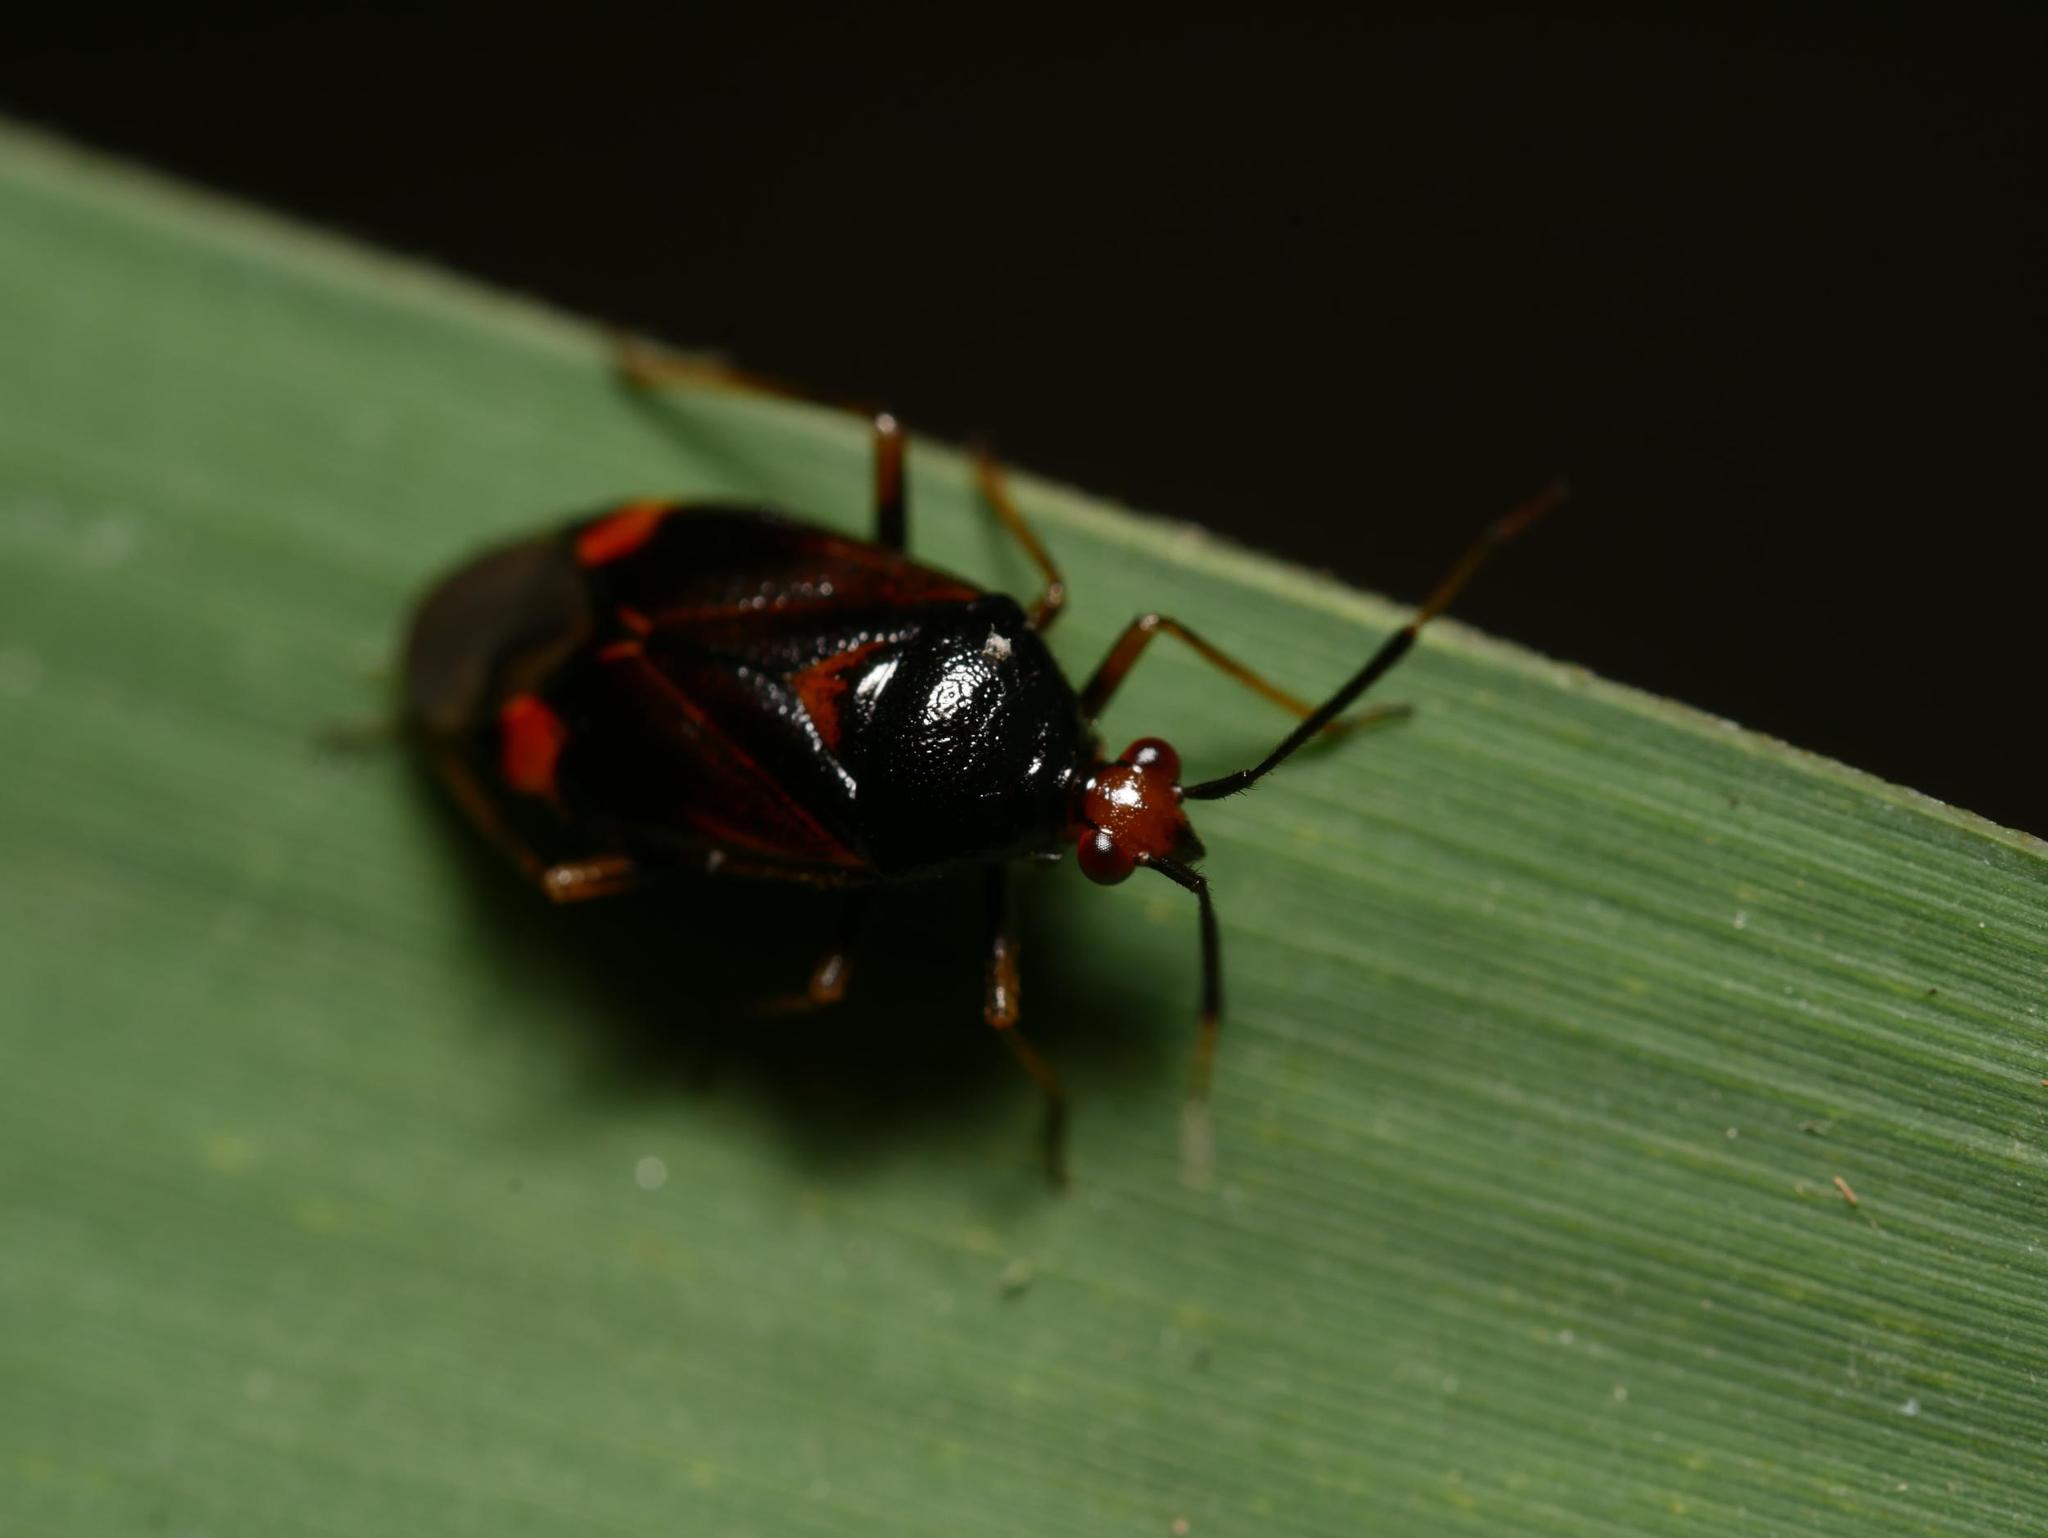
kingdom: Animalia
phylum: Arthropoda
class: Insecta
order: Hemiptera
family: Miridae
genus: Deraeocoris
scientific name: Deraeocoris ruber
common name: Plant bug
